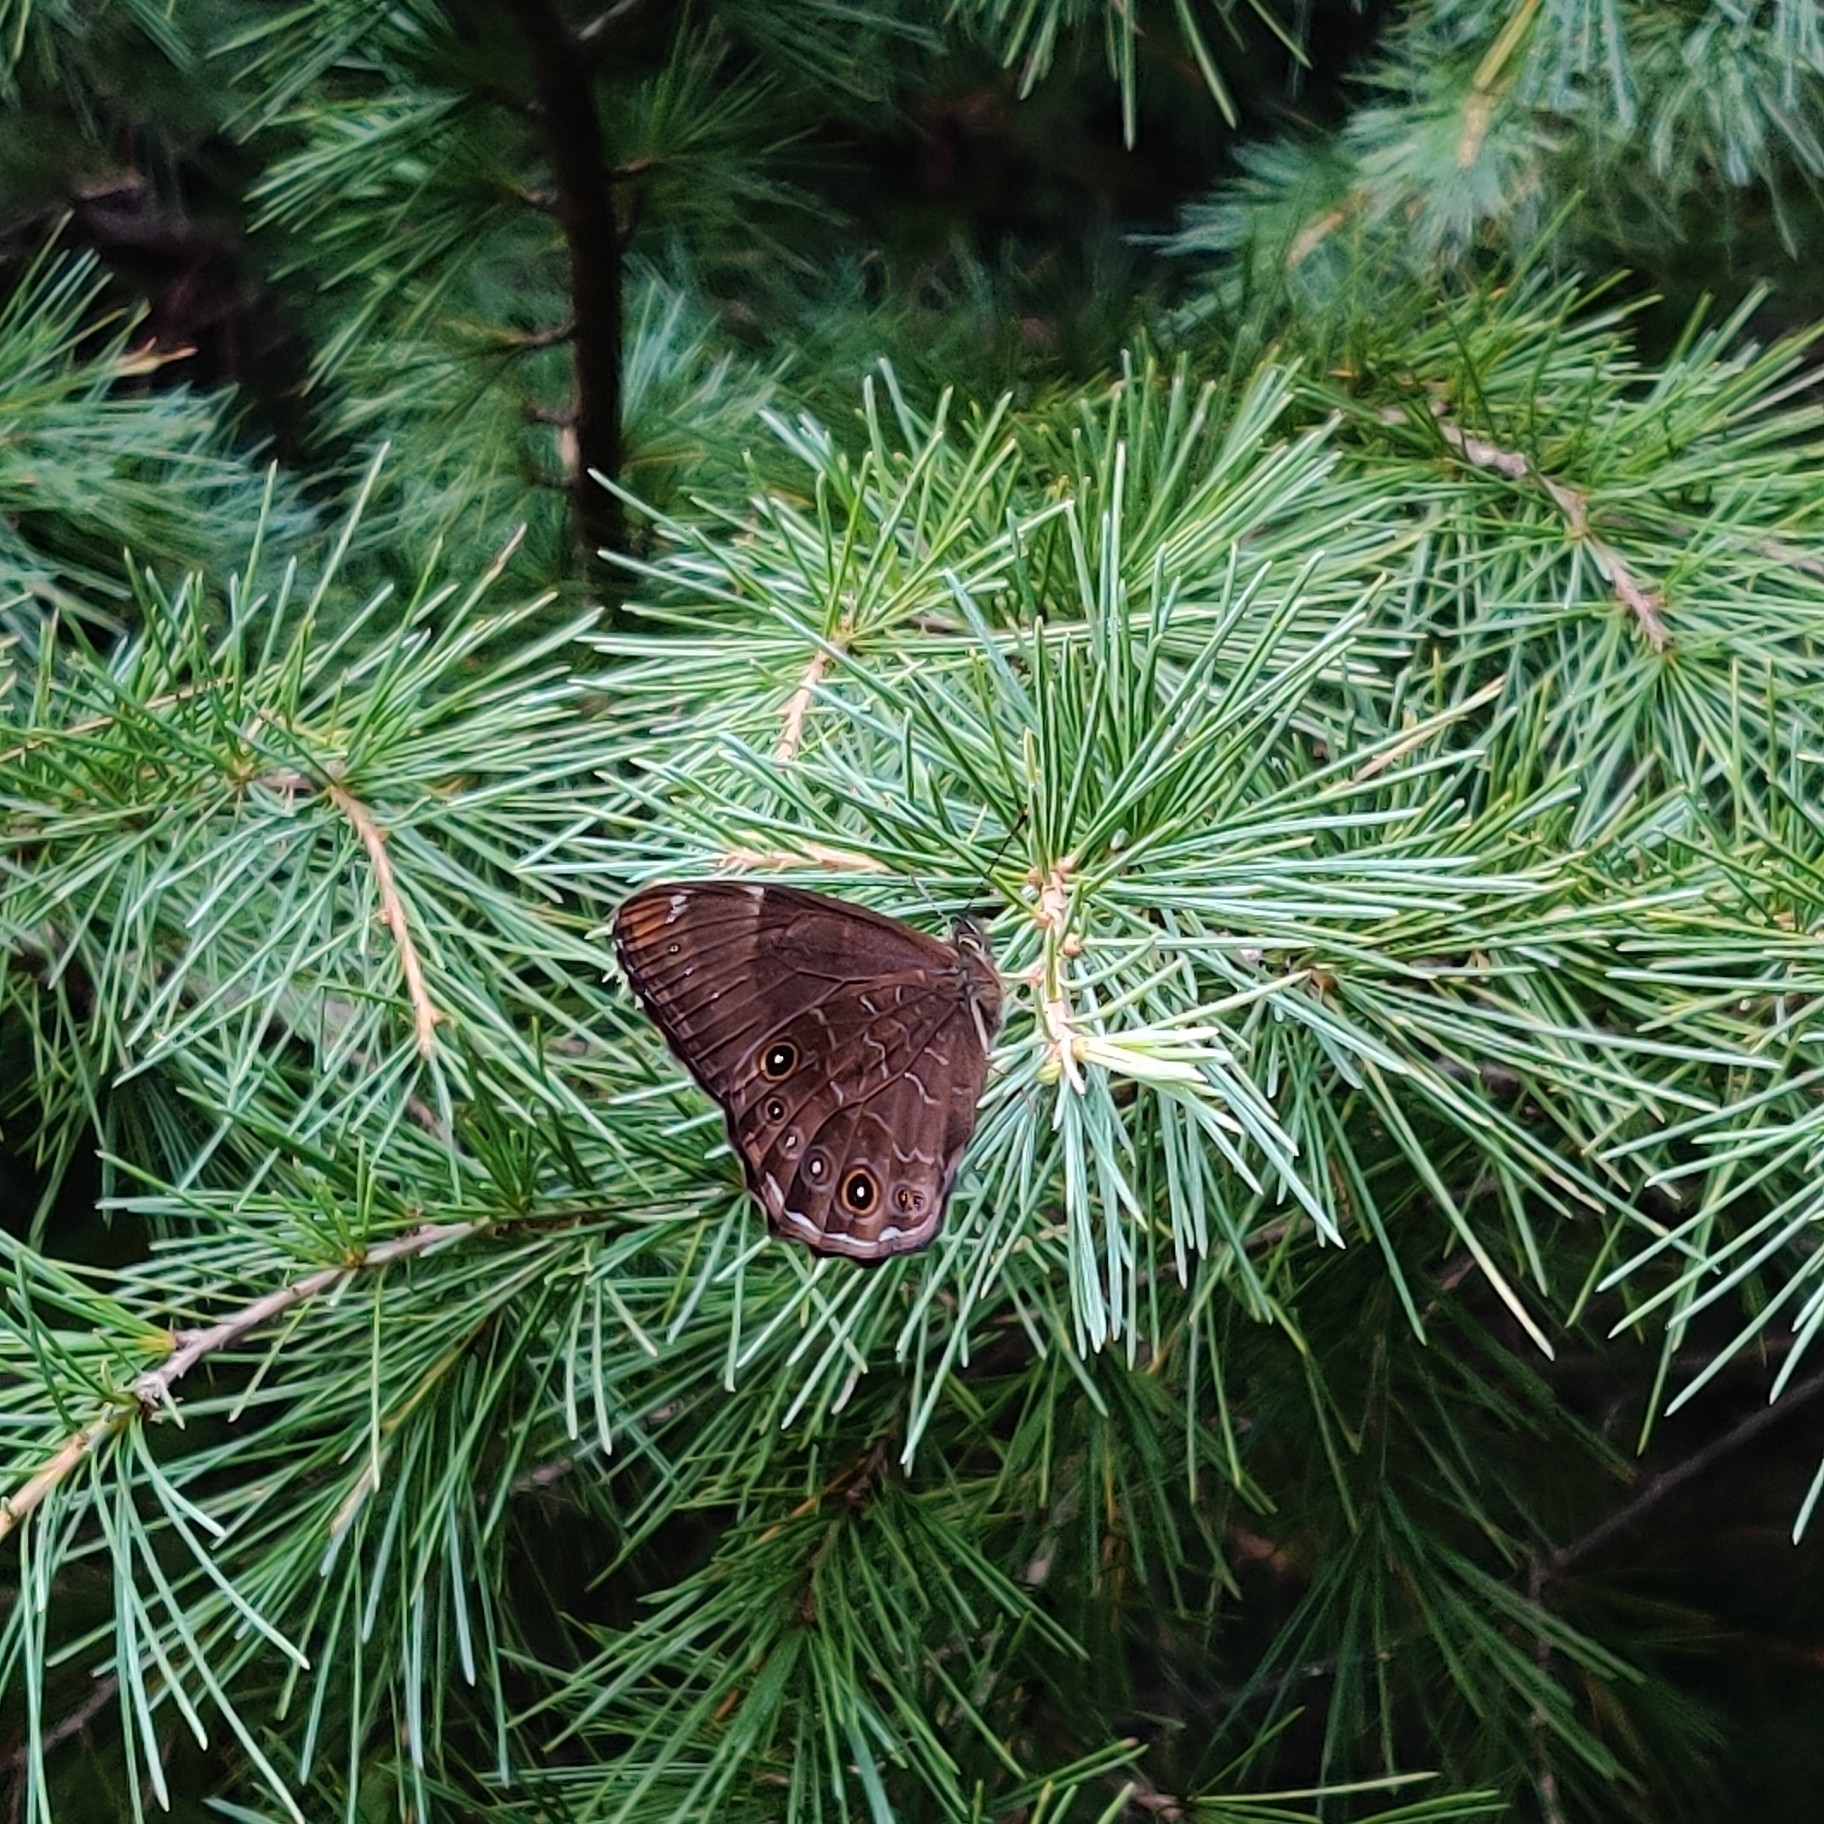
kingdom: Animalia
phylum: Arthropoda
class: Insecta
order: Lepidoptera
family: Nymphalidae
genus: Lethe
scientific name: Lethe sidonis
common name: Common woodbrown butterfly
